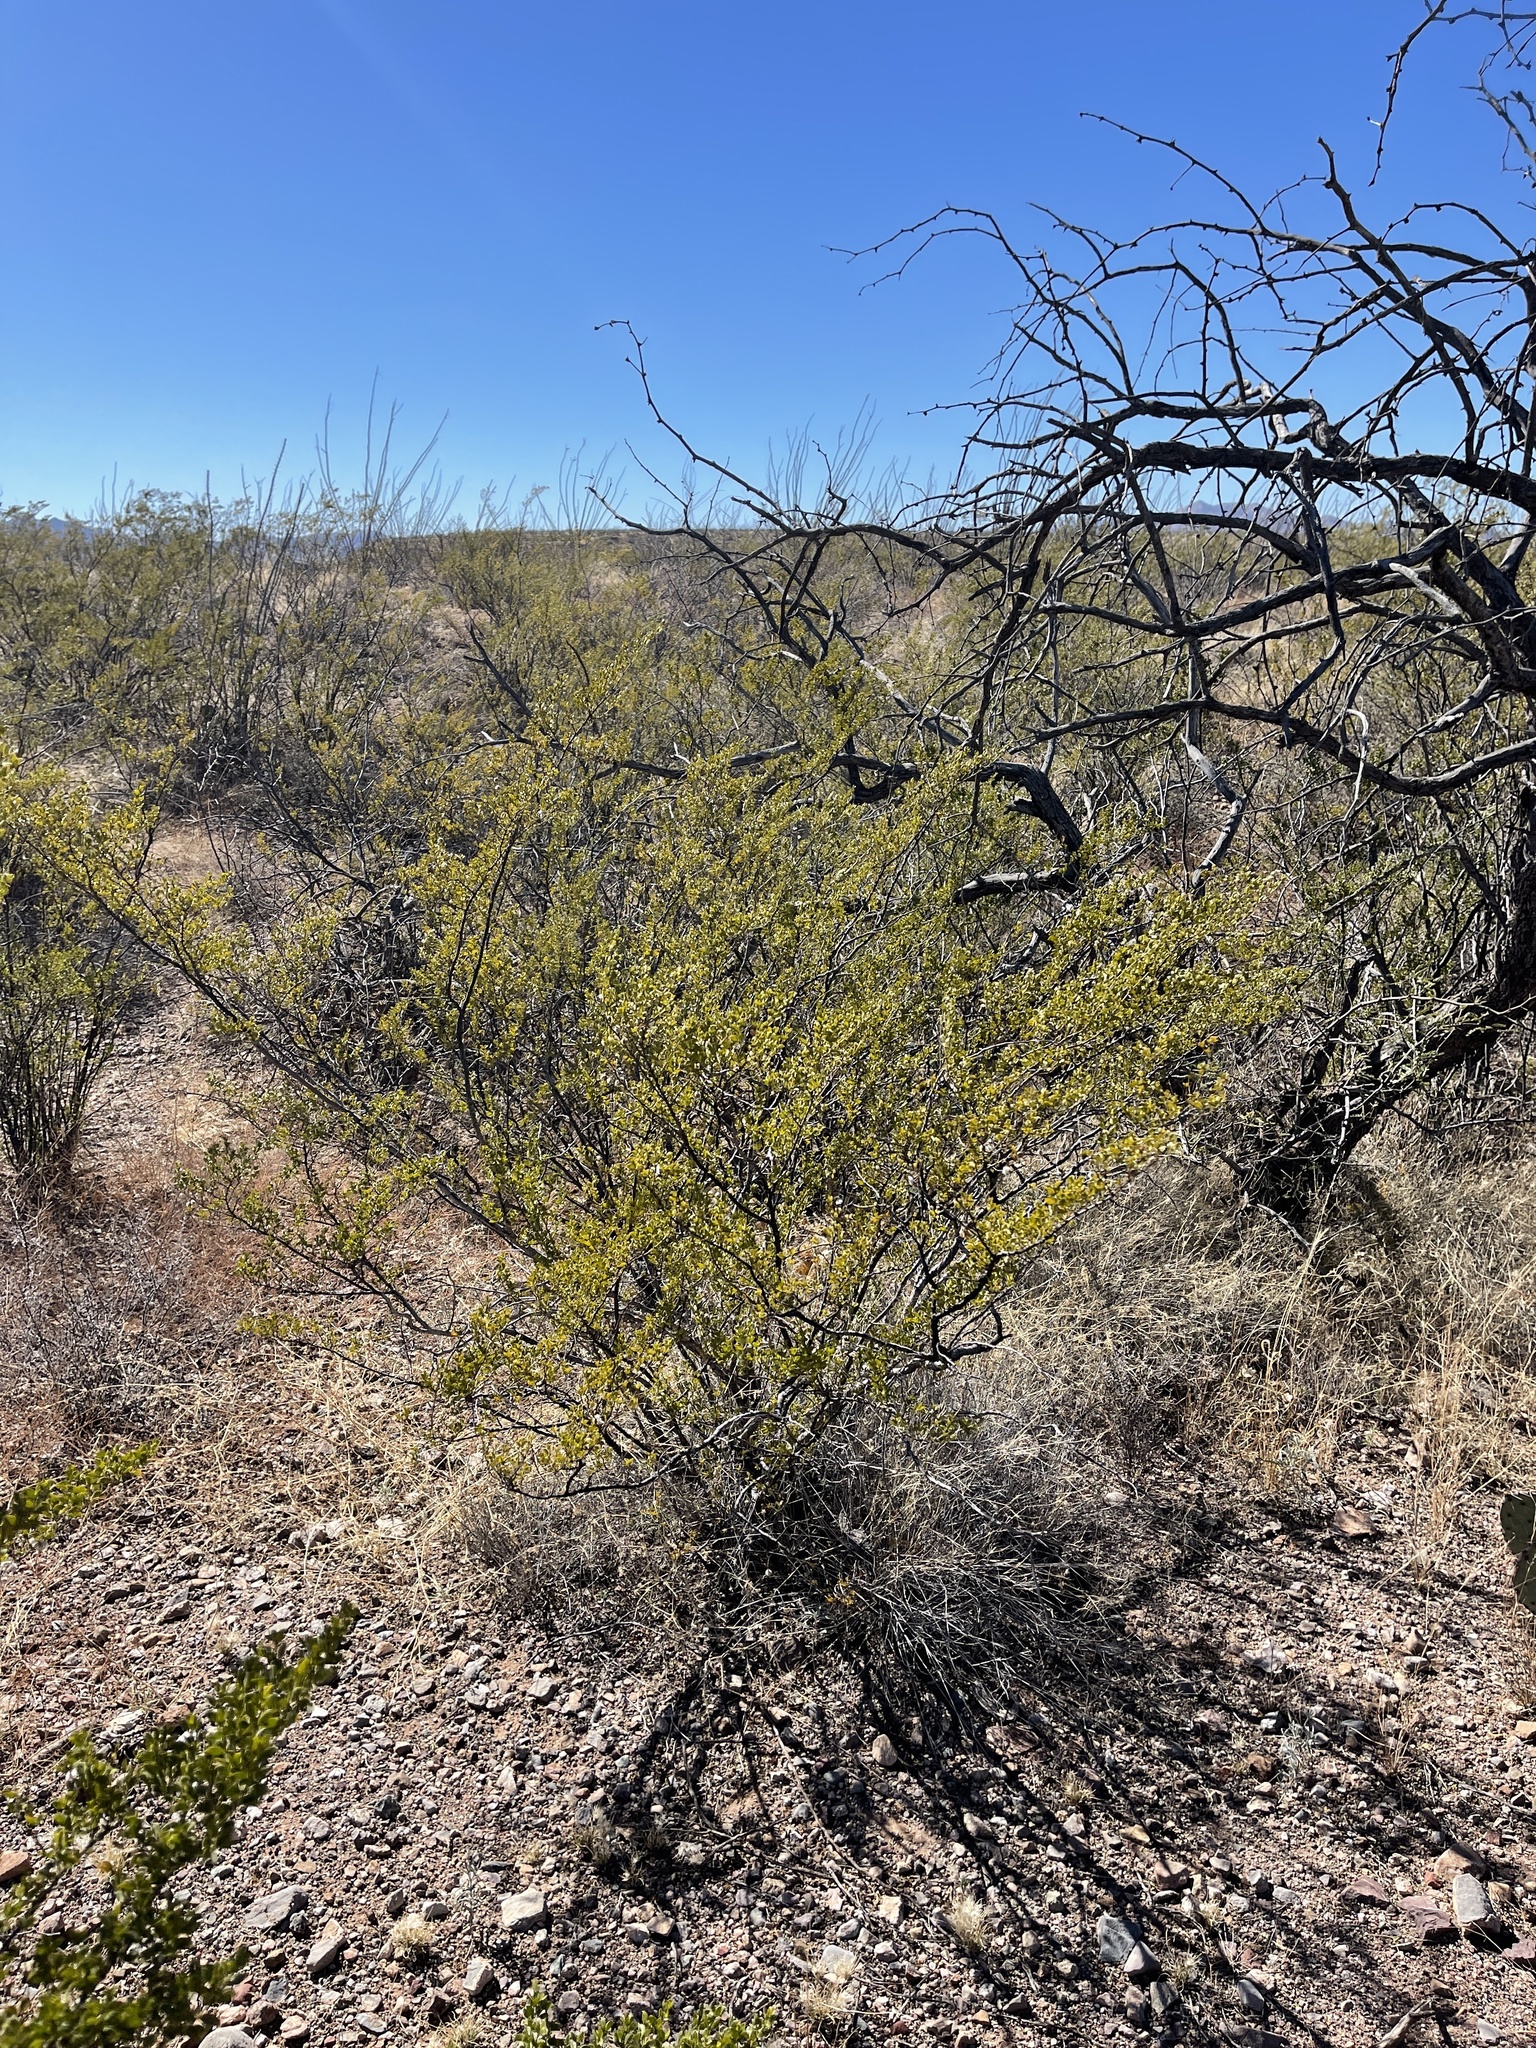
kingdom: Plantae
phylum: Tracheophyta
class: Magnoliopsida
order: Zygophyllales
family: Zygophyllaceae
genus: Larrea
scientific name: Larrea tridentata
